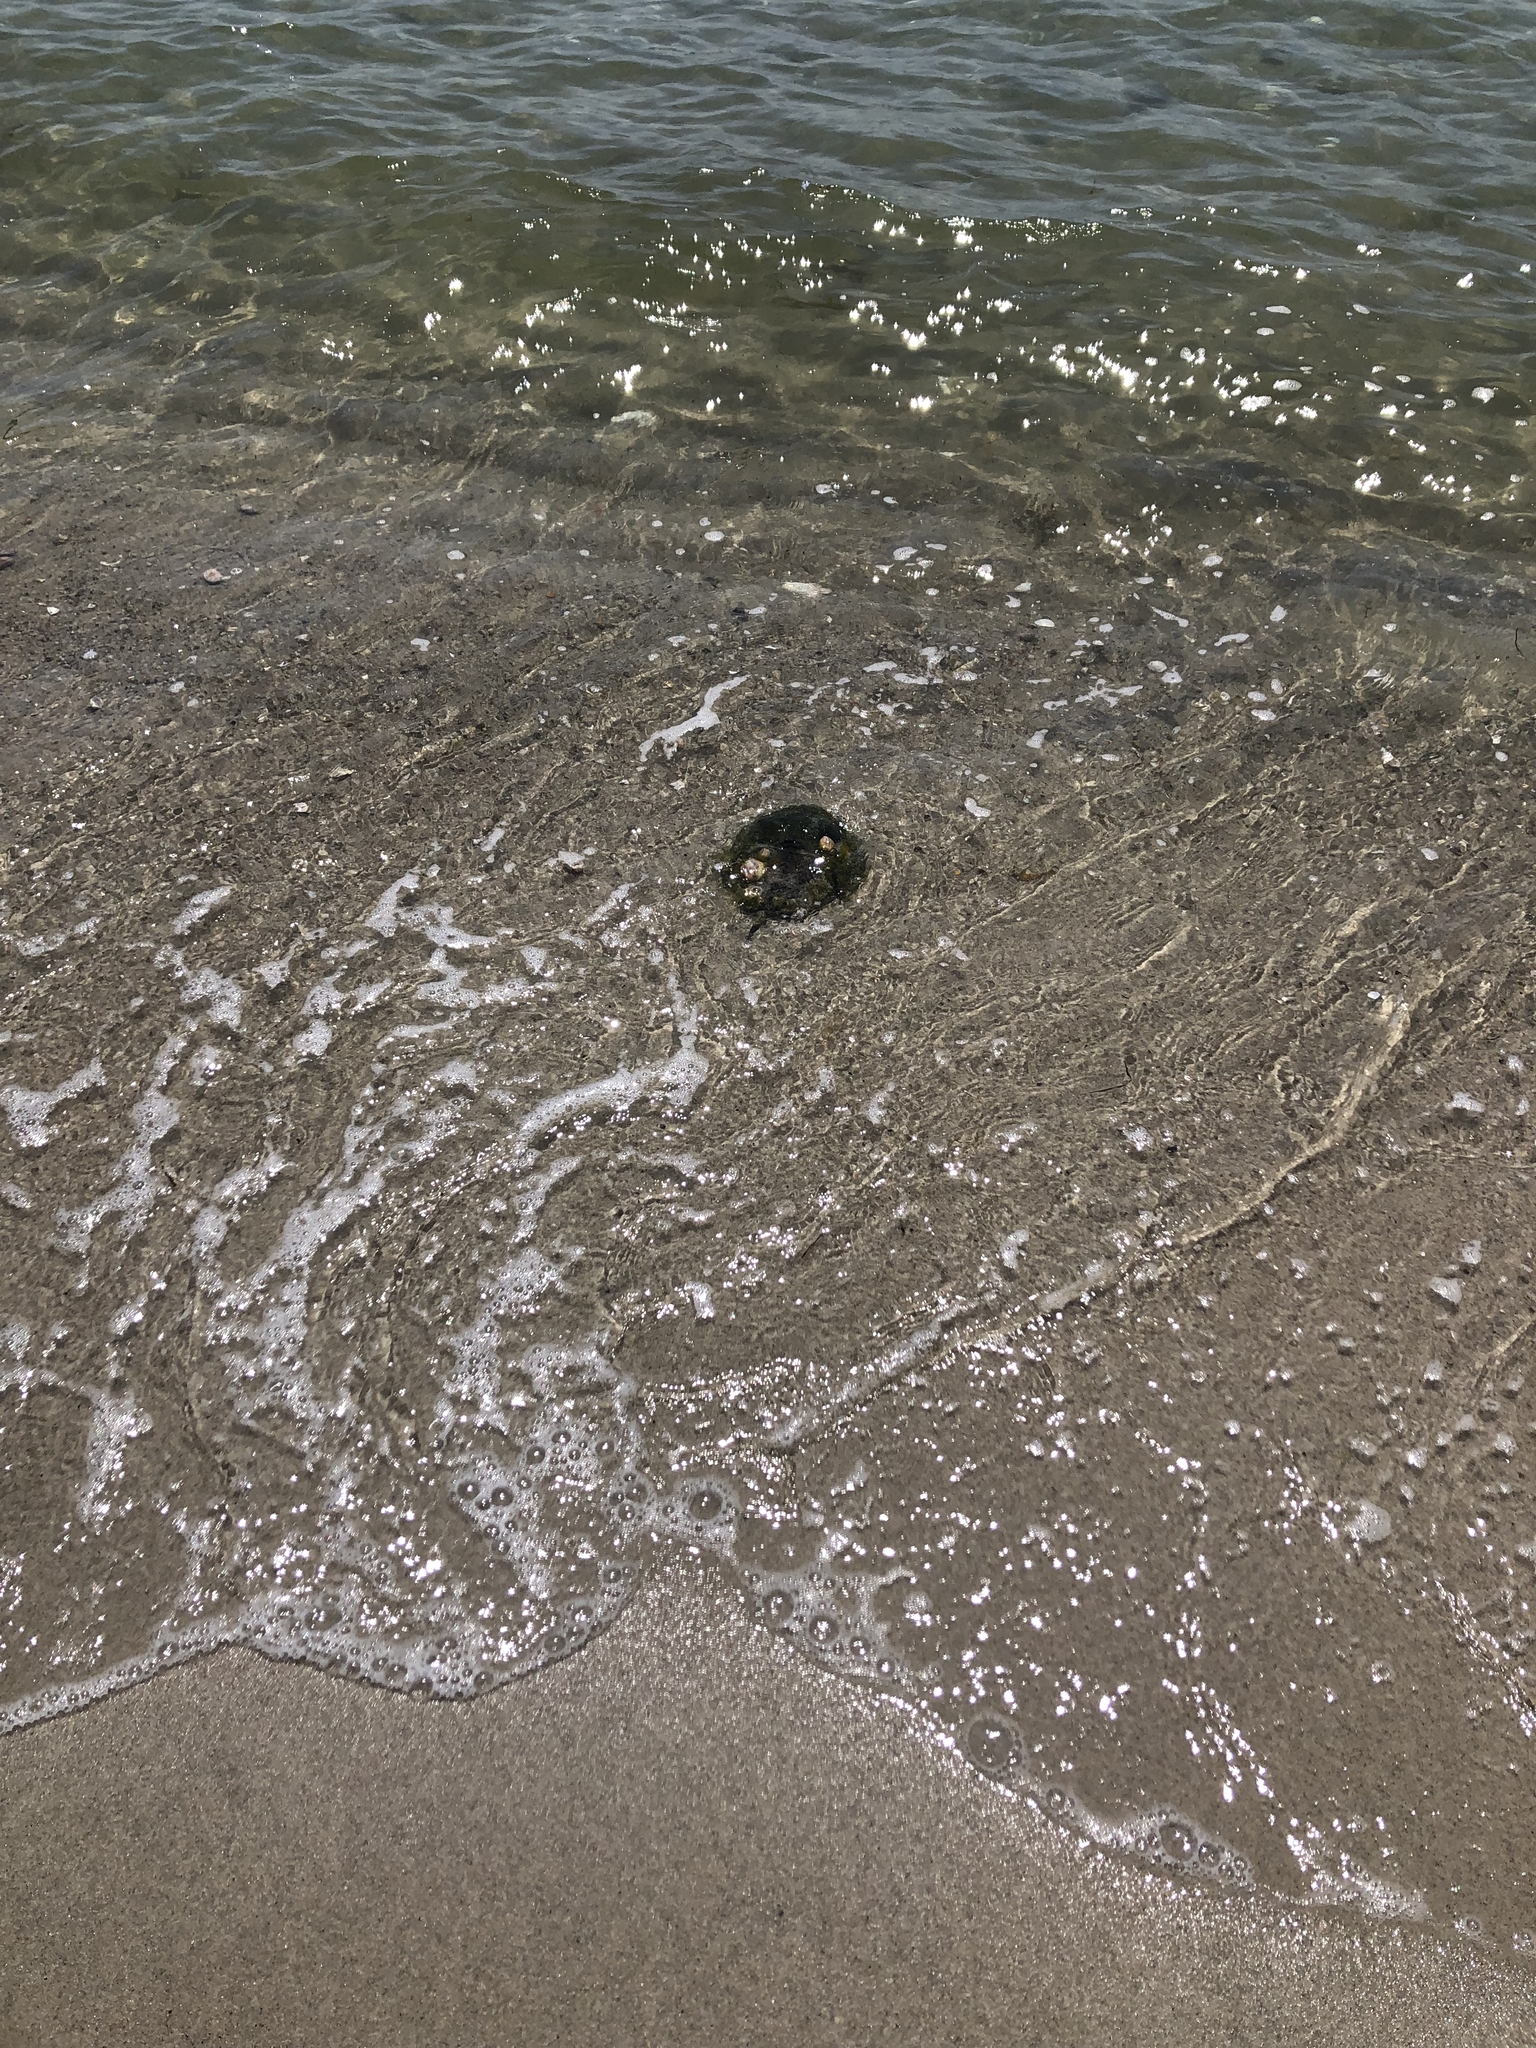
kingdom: Animalia
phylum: Arthropoda
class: Merostomata
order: Xiphosurida
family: Limulidae
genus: Limulus
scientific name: Limulus polyphemus
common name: Horseshoe crab
